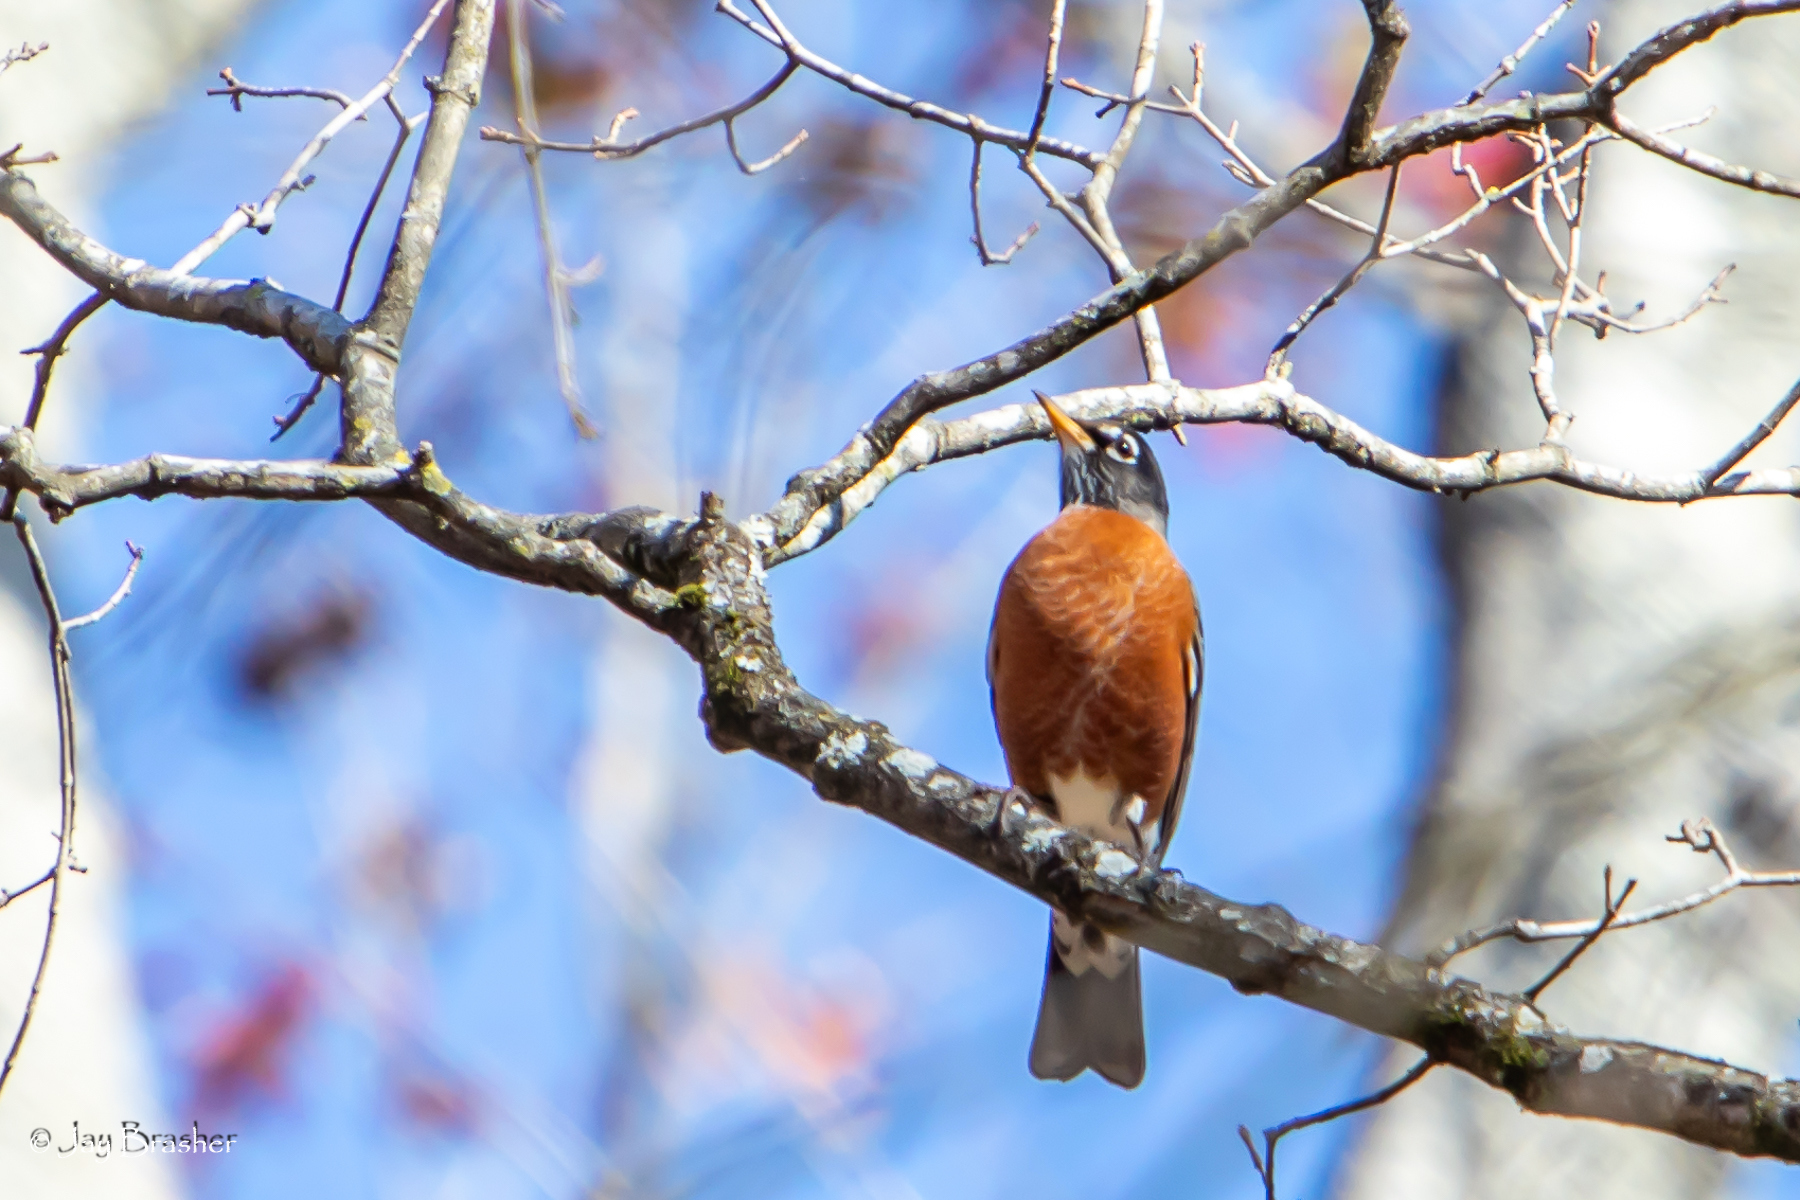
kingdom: Animalia
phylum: Chordata
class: Aves
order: Passeriformes
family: Turdidae
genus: Turdus
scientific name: Turdus migratorius
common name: American robin
